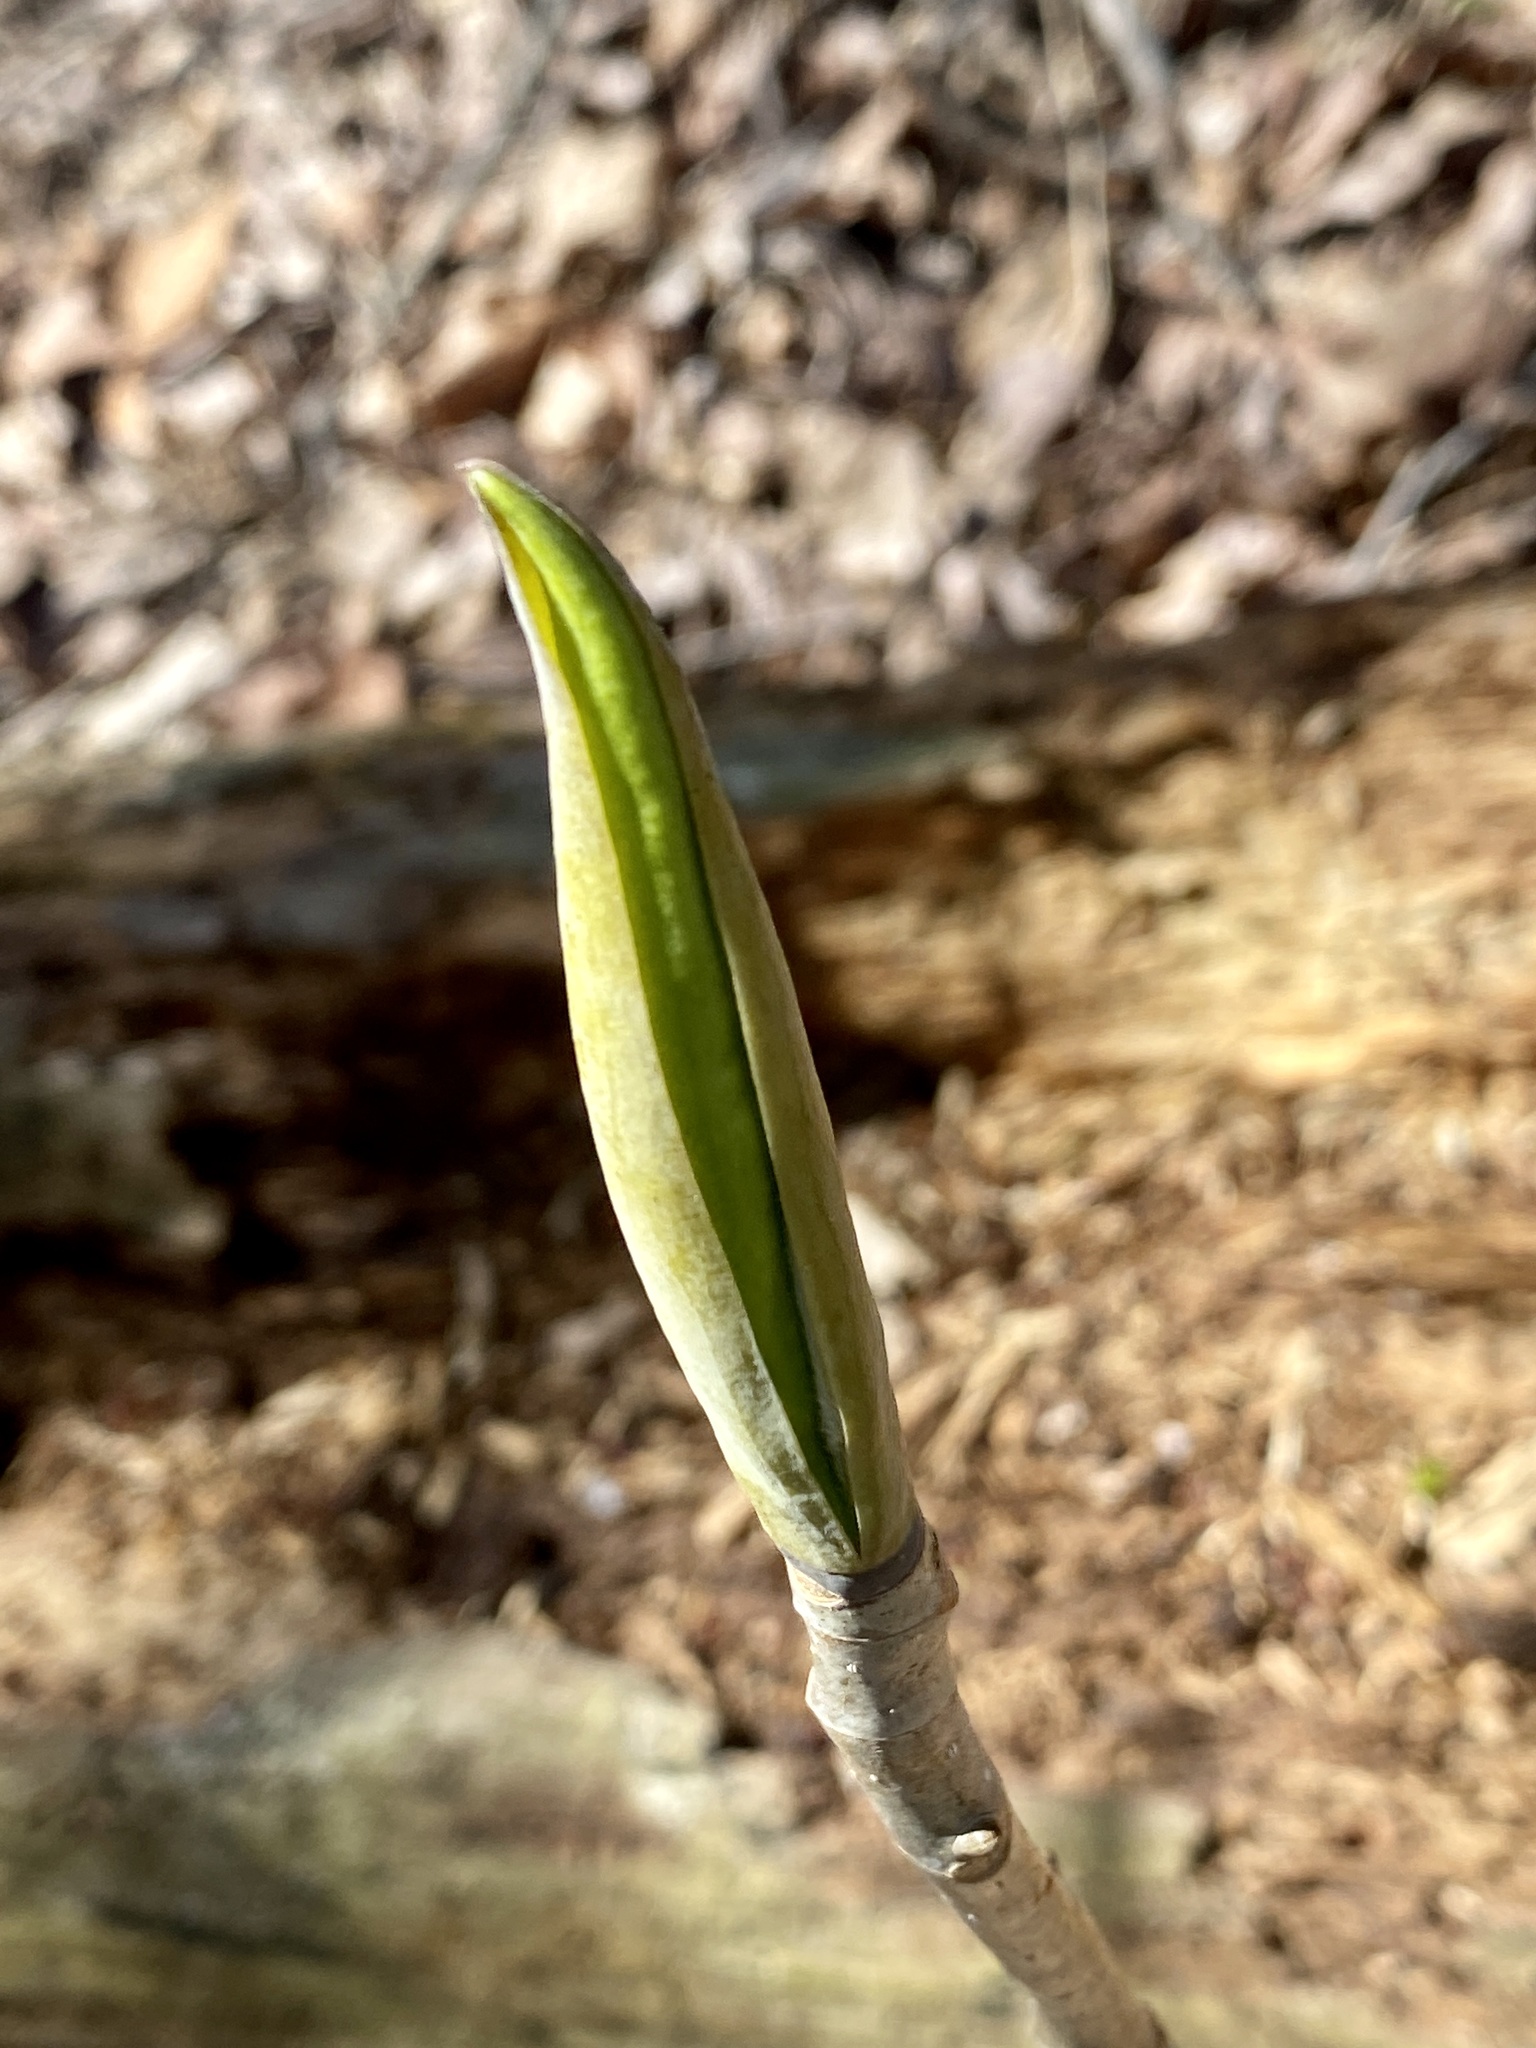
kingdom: Plantae
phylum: Tracheophyta
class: Magnoliopsida
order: Magnoliales
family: Magnoliaceae
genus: Magnolia
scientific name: Magnolia tripetala
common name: Umbrella magnolia
